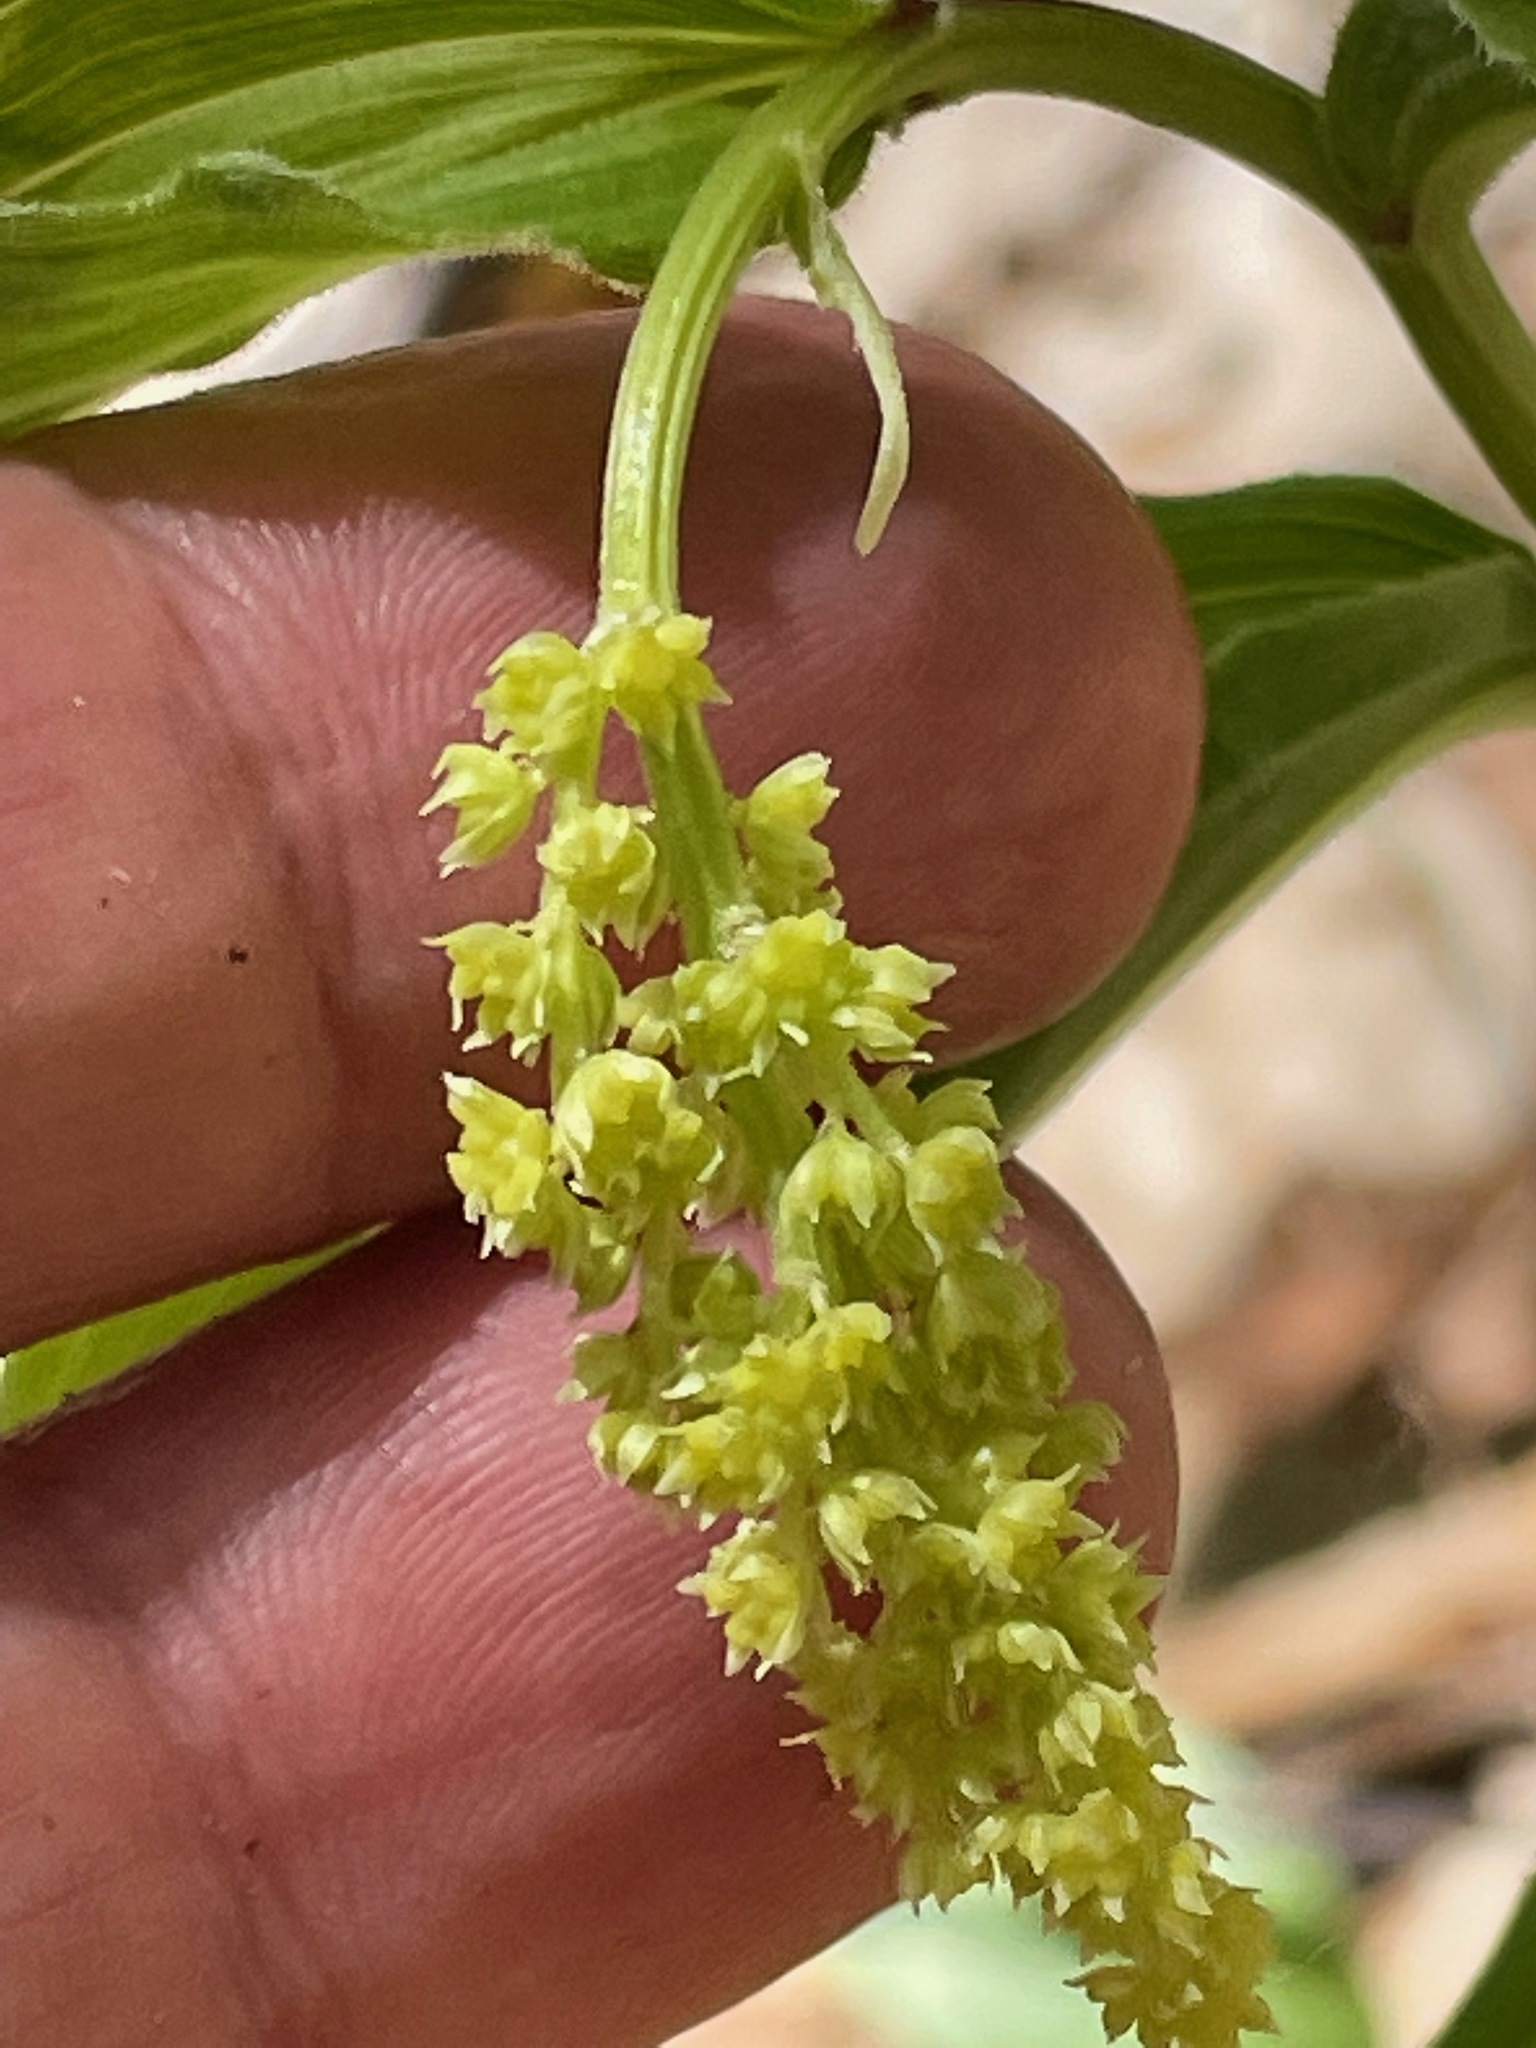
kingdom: Plantae
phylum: Tracheophyta
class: Liliopsida
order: Asparagales
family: Asparagaceae
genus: Maianthemum
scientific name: Maianthemum racemosum
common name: False spikenard
